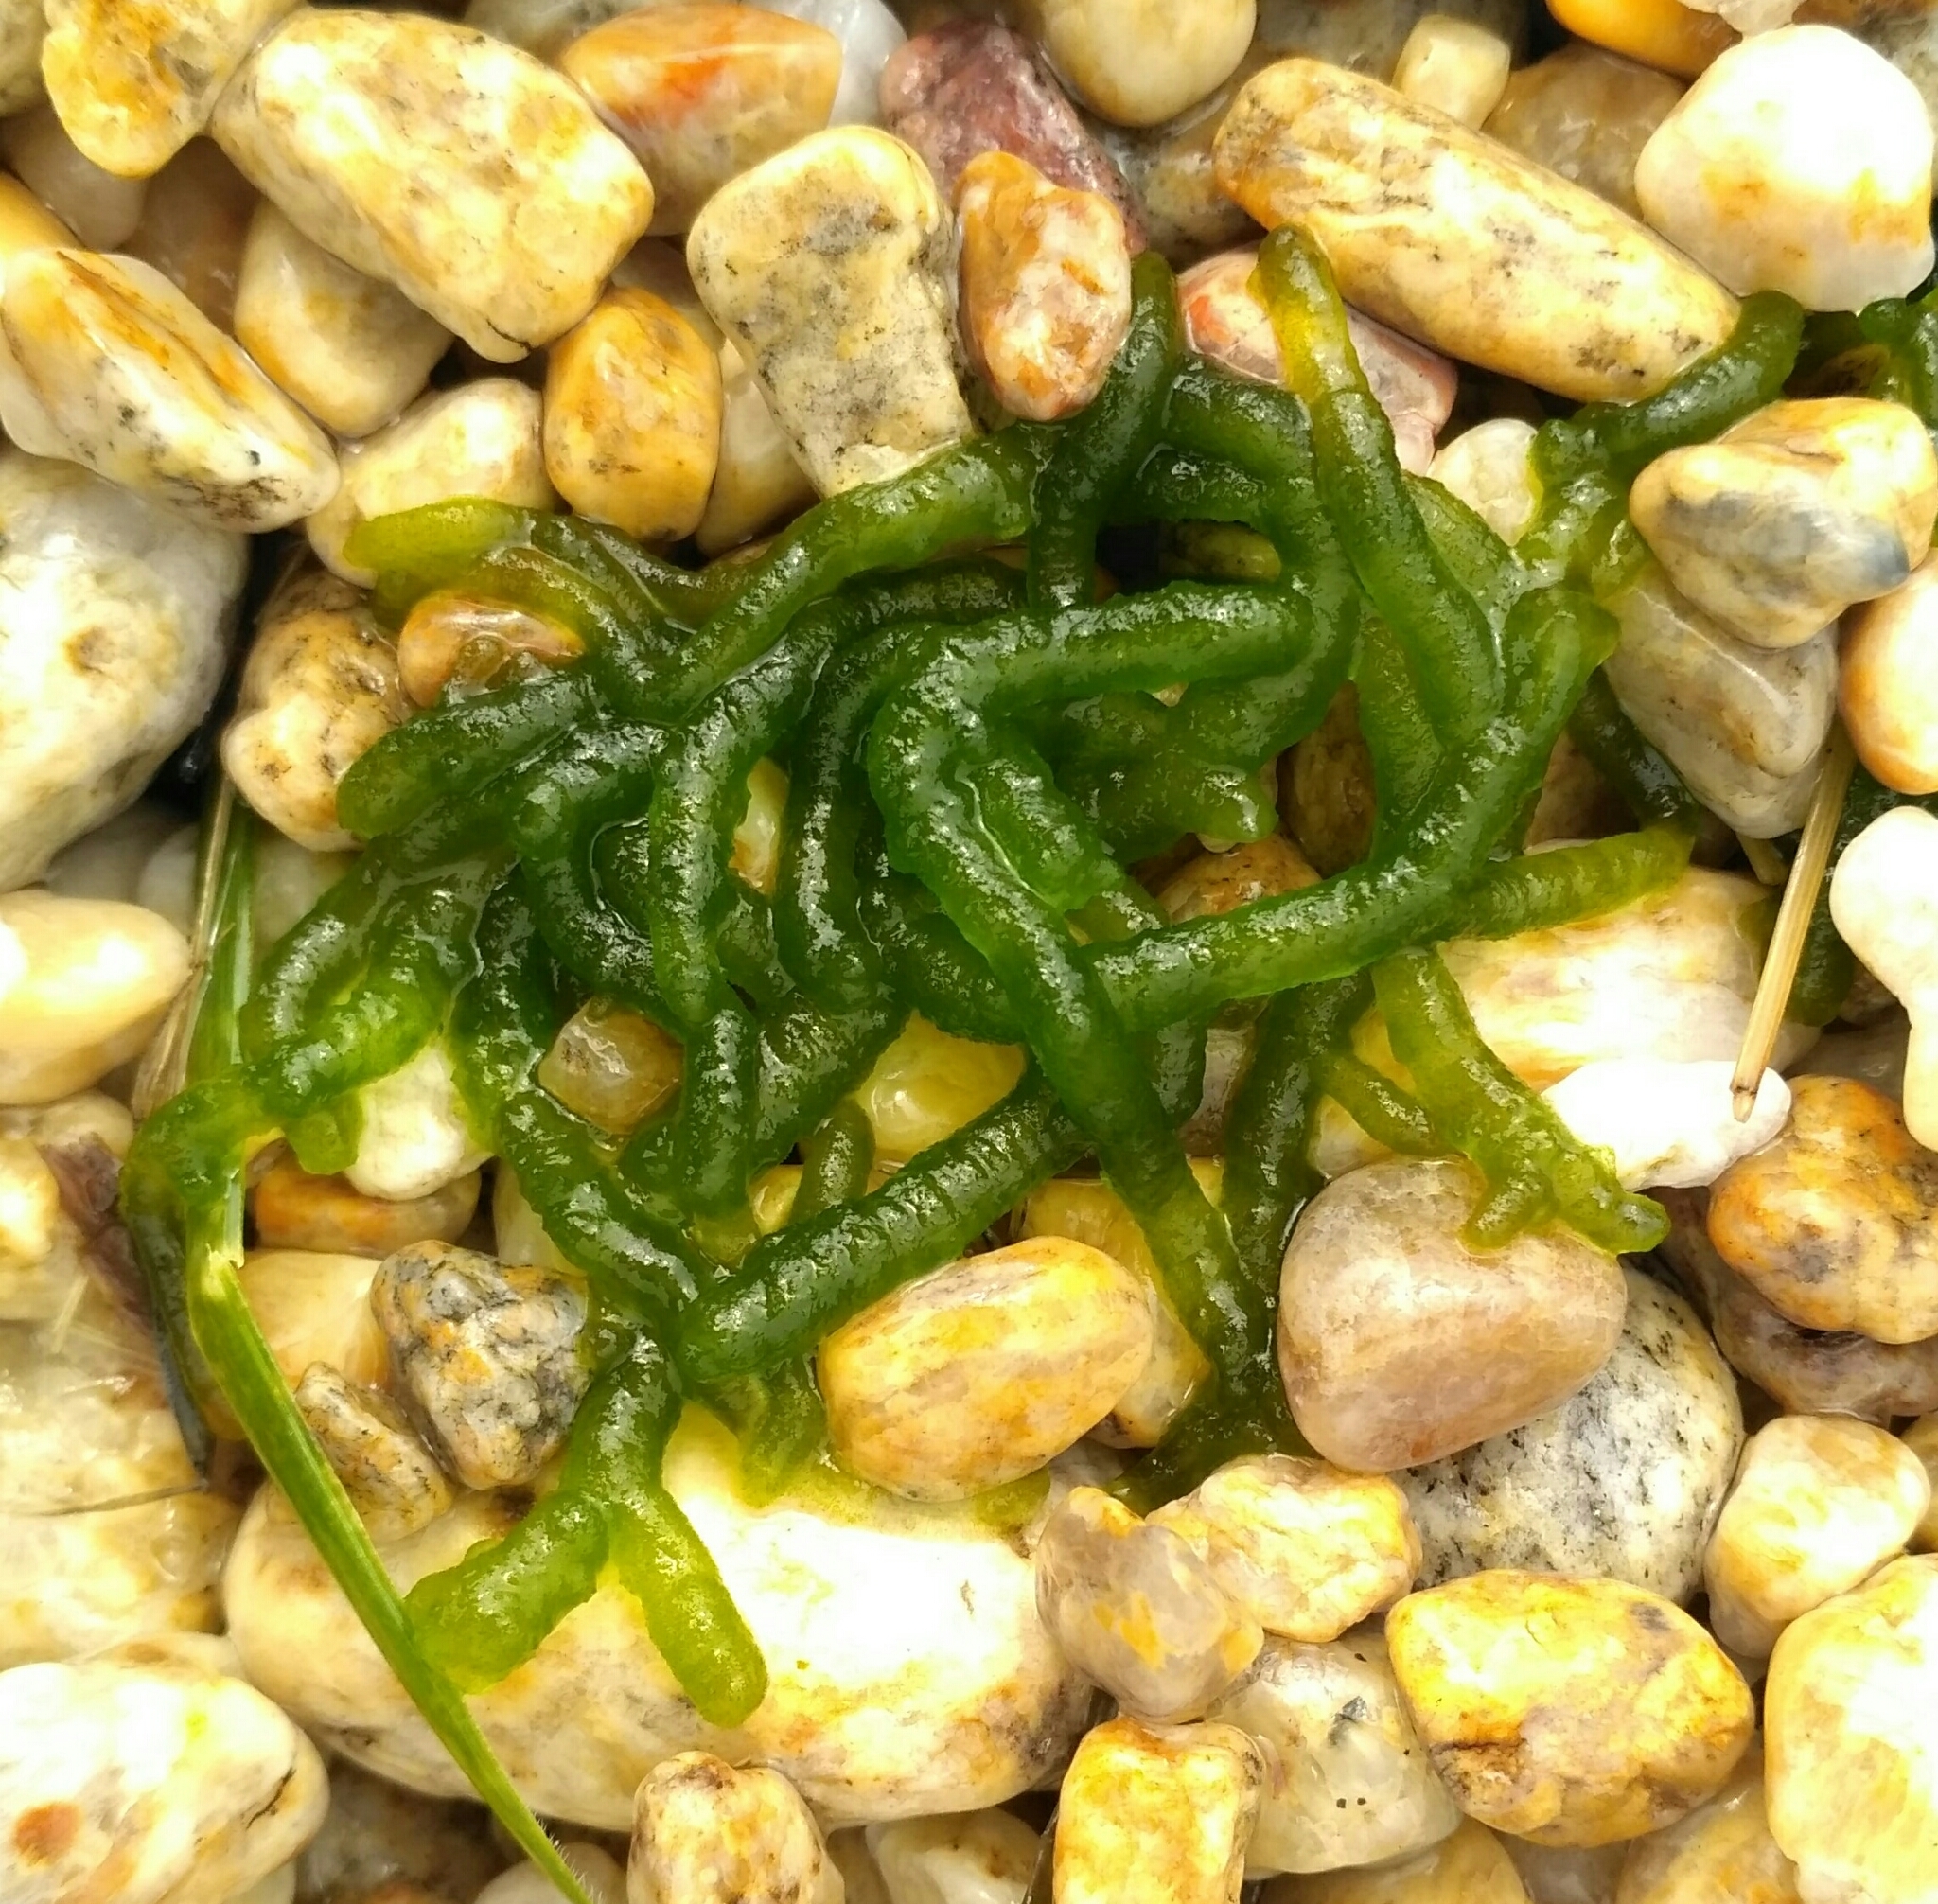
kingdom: Plantae
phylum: Chlorophyta
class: Chlorophyceae
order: Chaetophorales
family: Chaetophoraceae
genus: Draparnaldioides
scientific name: Draparnaldioides
